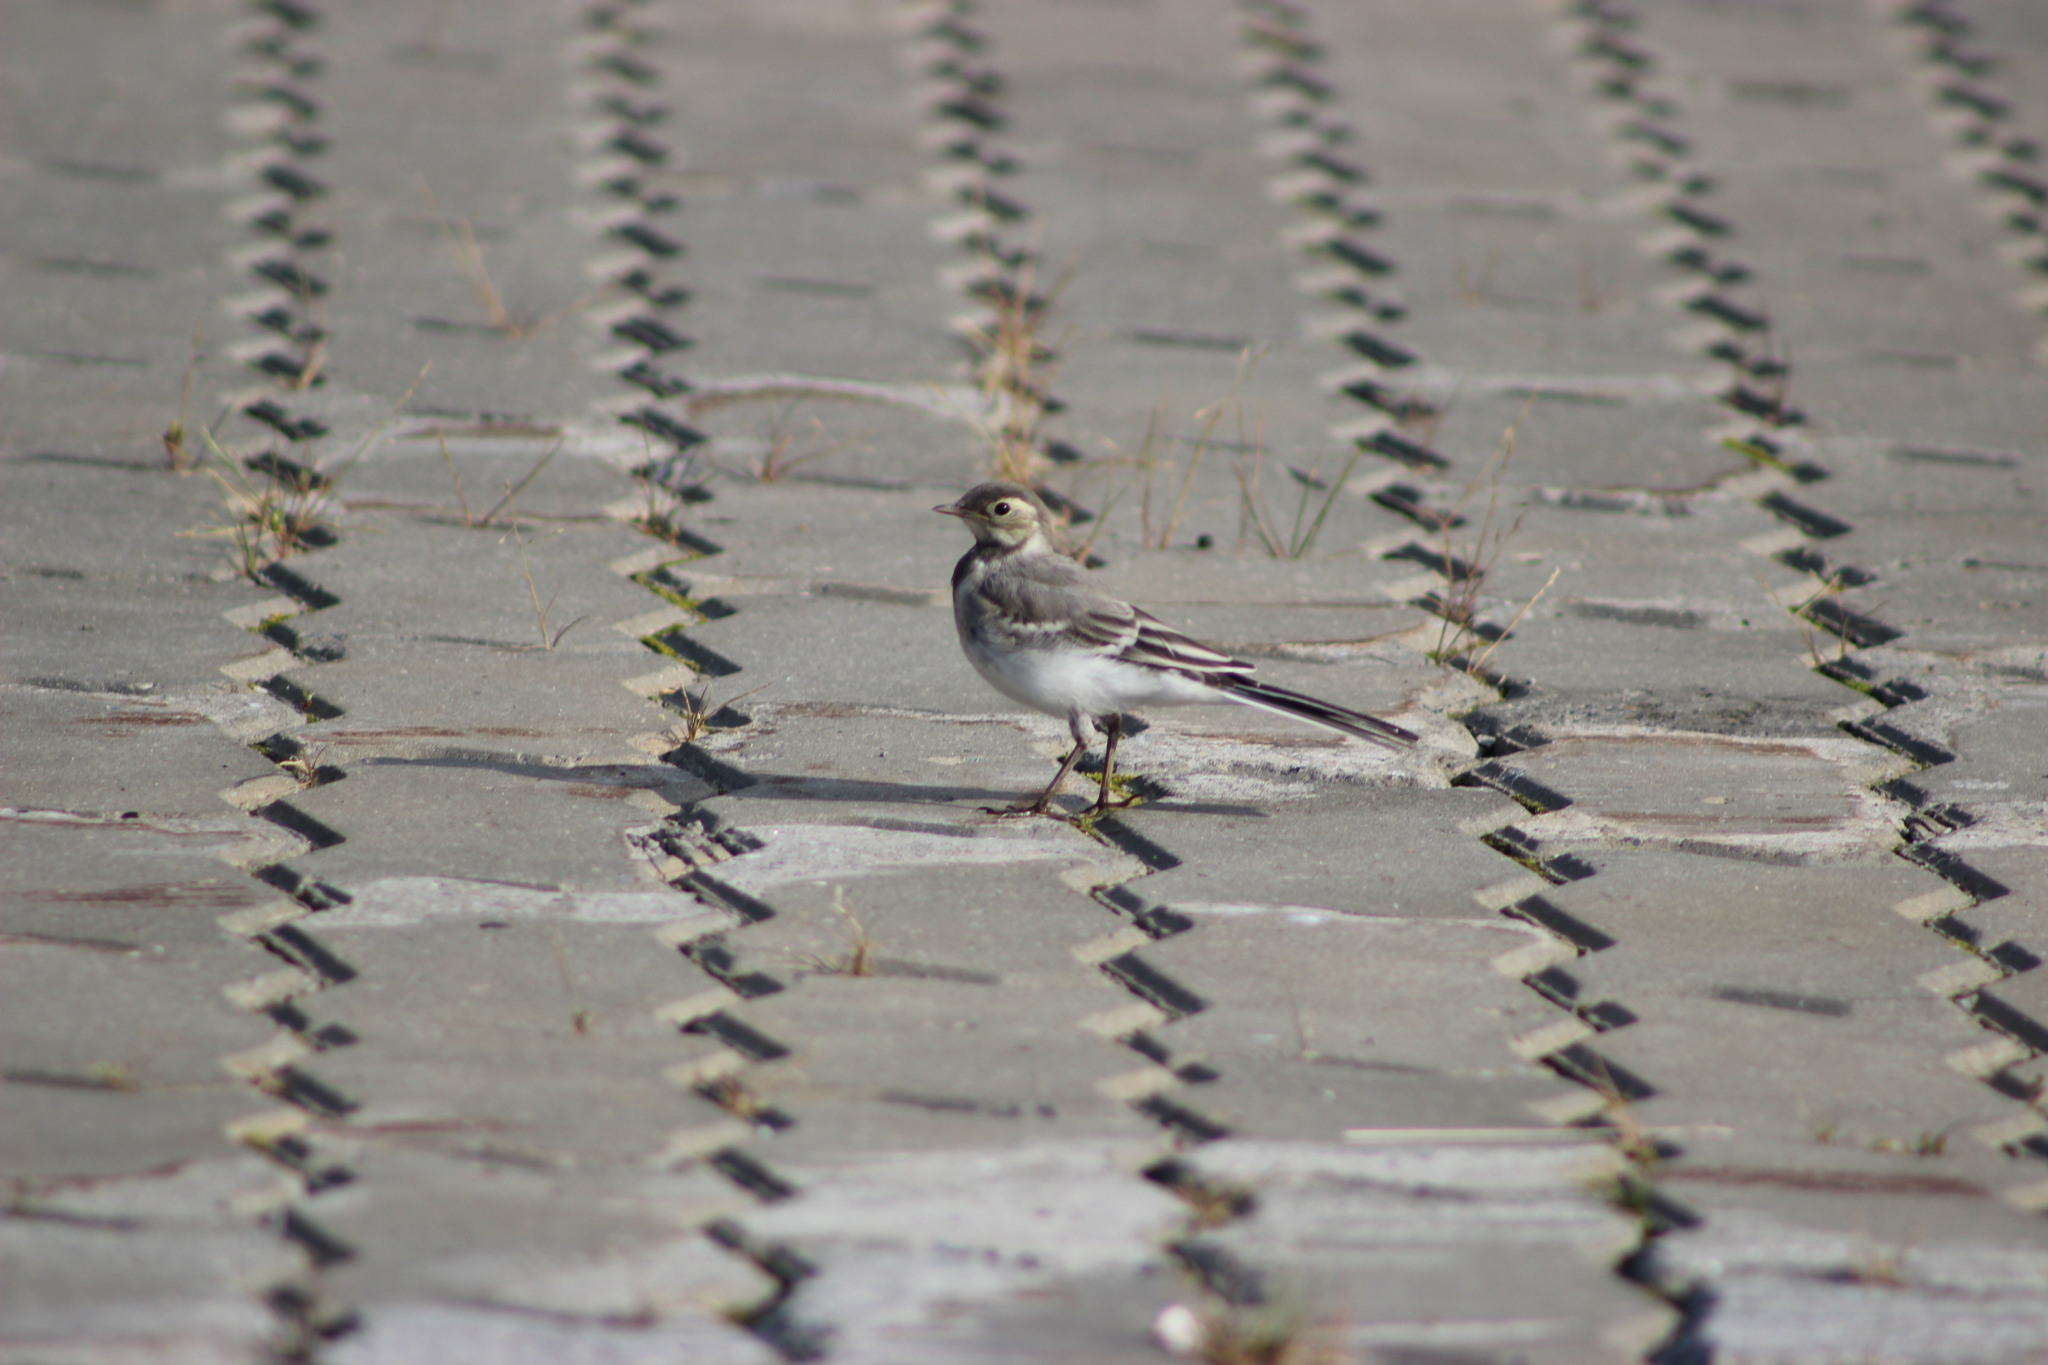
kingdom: Animalia
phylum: Chordata
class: Aves
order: Passeriformes
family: Motacillidae
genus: Motacilla
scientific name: Motacilla alba
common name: White wagtail
